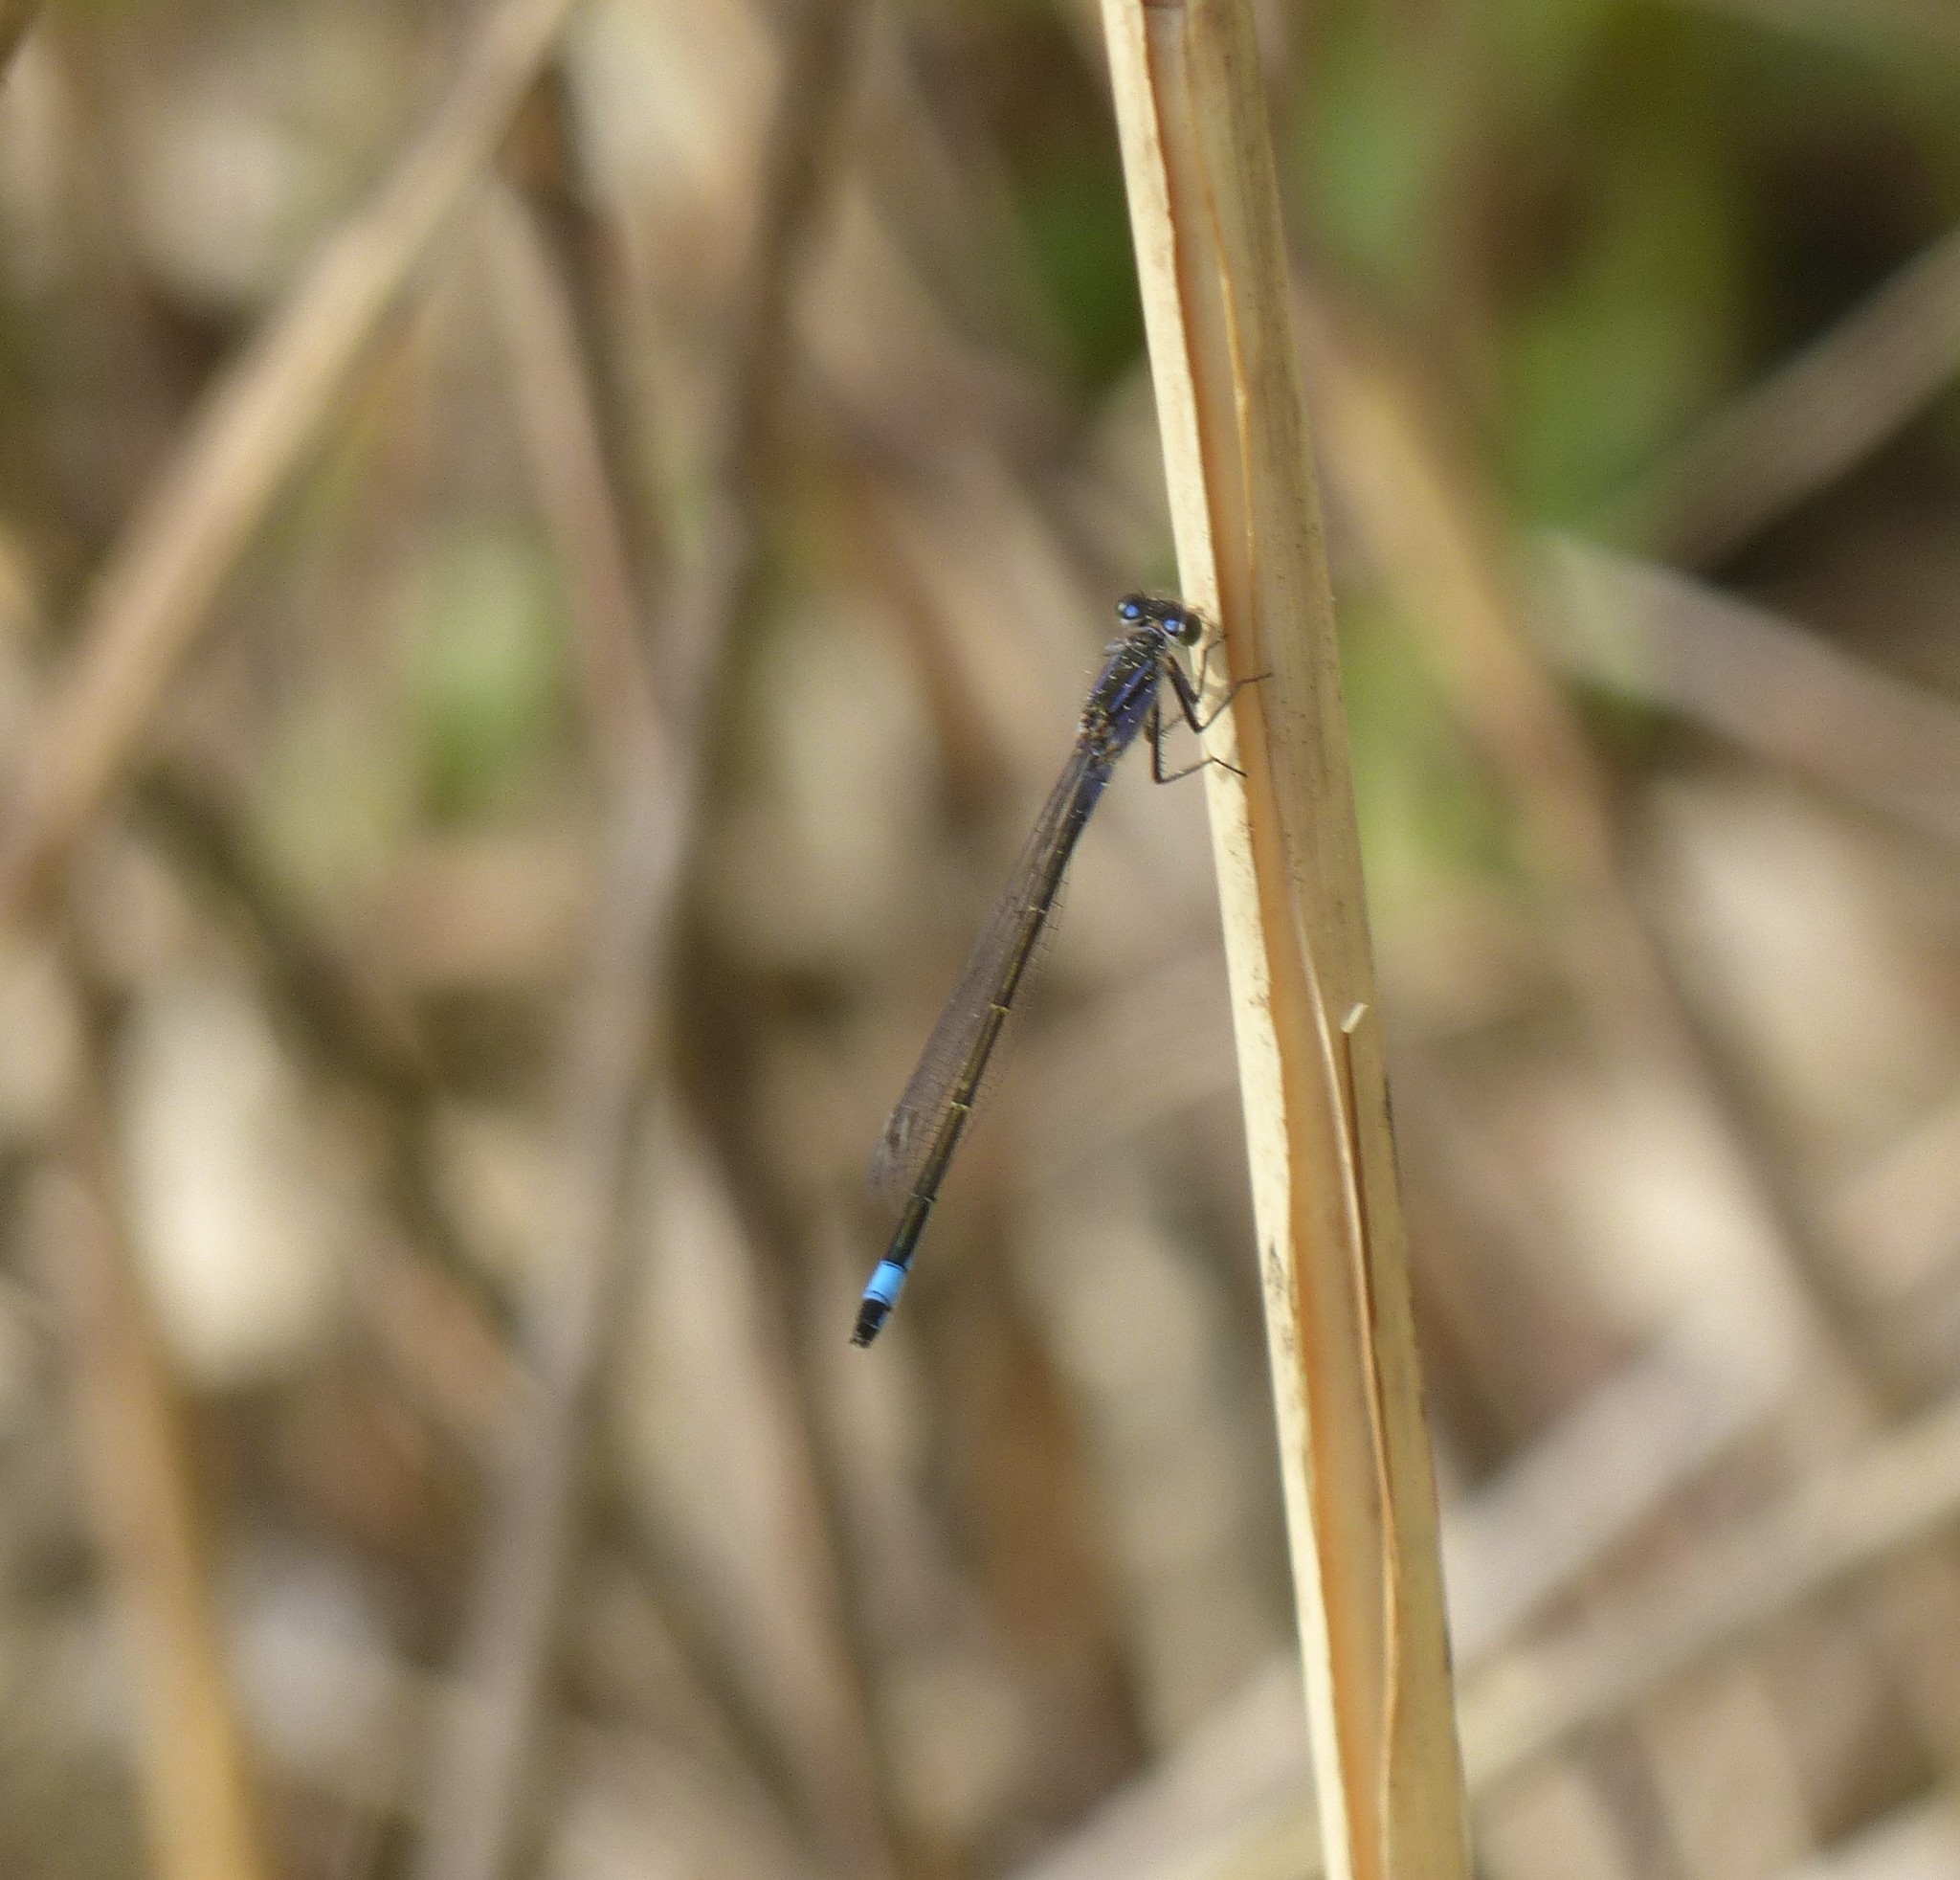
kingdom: Animalia
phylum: Arthropoda
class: Insecta
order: Odonata
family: Coenagrionidae
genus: Ischnura
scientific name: Ischnura elegans
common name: Blue-tailed damselfly
